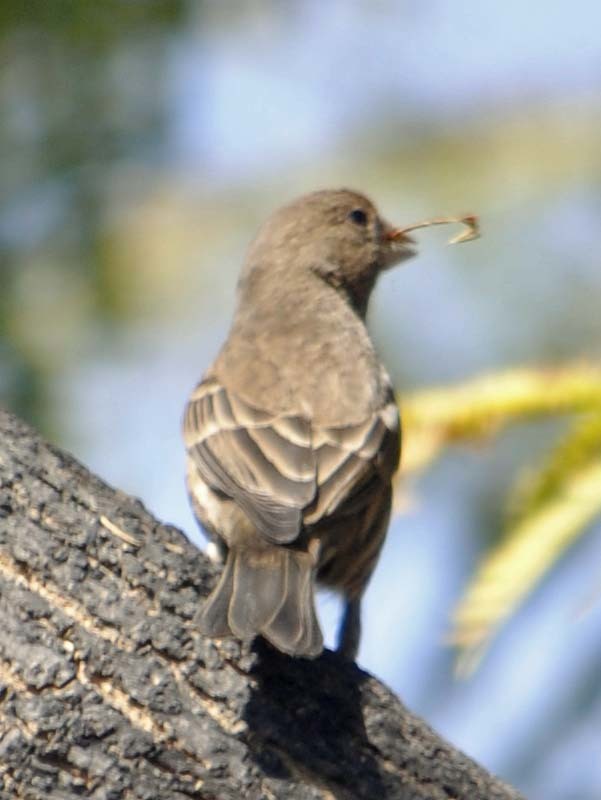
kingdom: Animalia
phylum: Chordata
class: Aves
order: Passeriformes
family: Fringillidae
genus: Haemorhous
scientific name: Haemorhous mexicanus
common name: House finch
